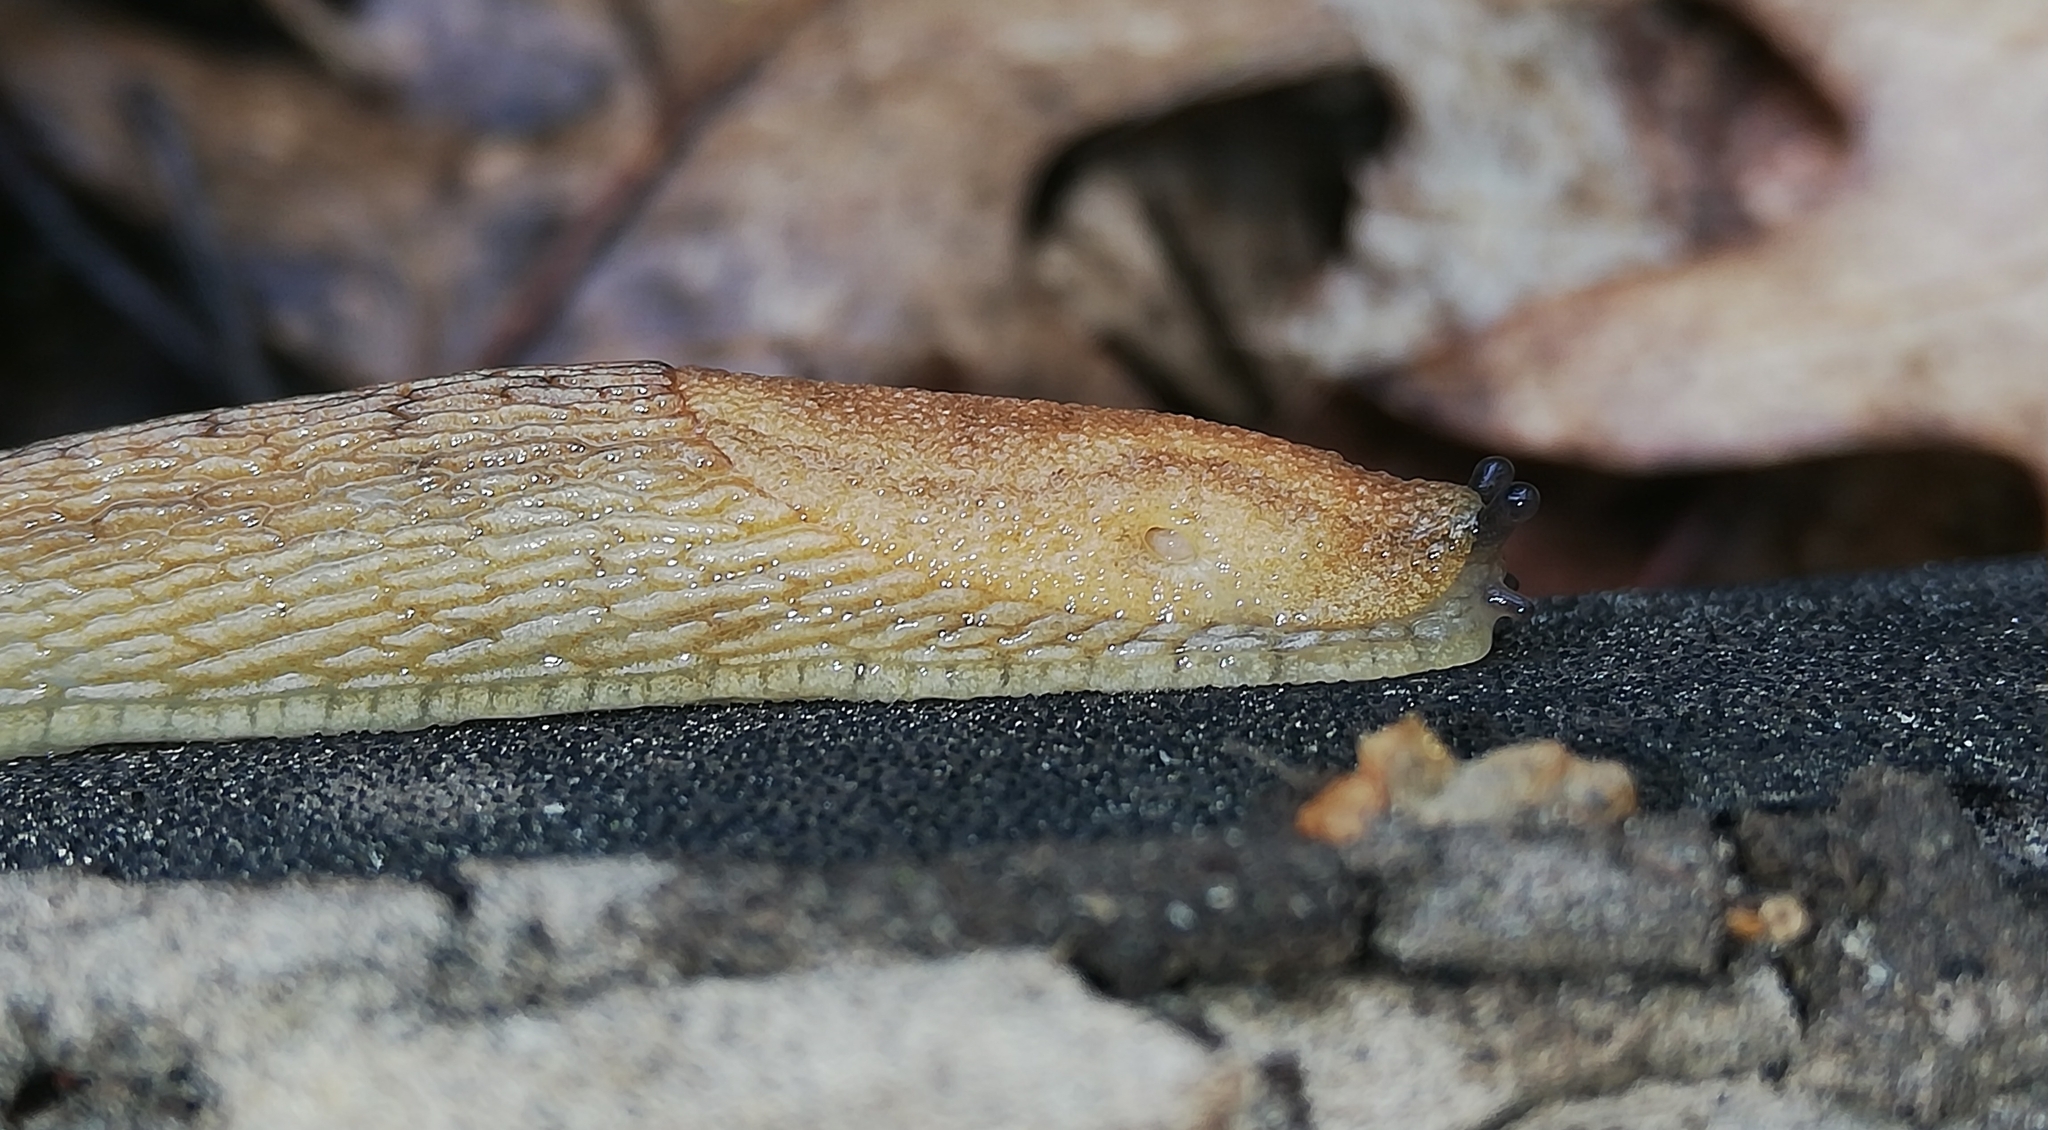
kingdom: Animalia
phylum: Mollusca
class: Gastropoda
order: Stylommatophora
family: Arionidae
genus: Arion
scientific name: Arion fuscus
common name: Northern dusky slug
